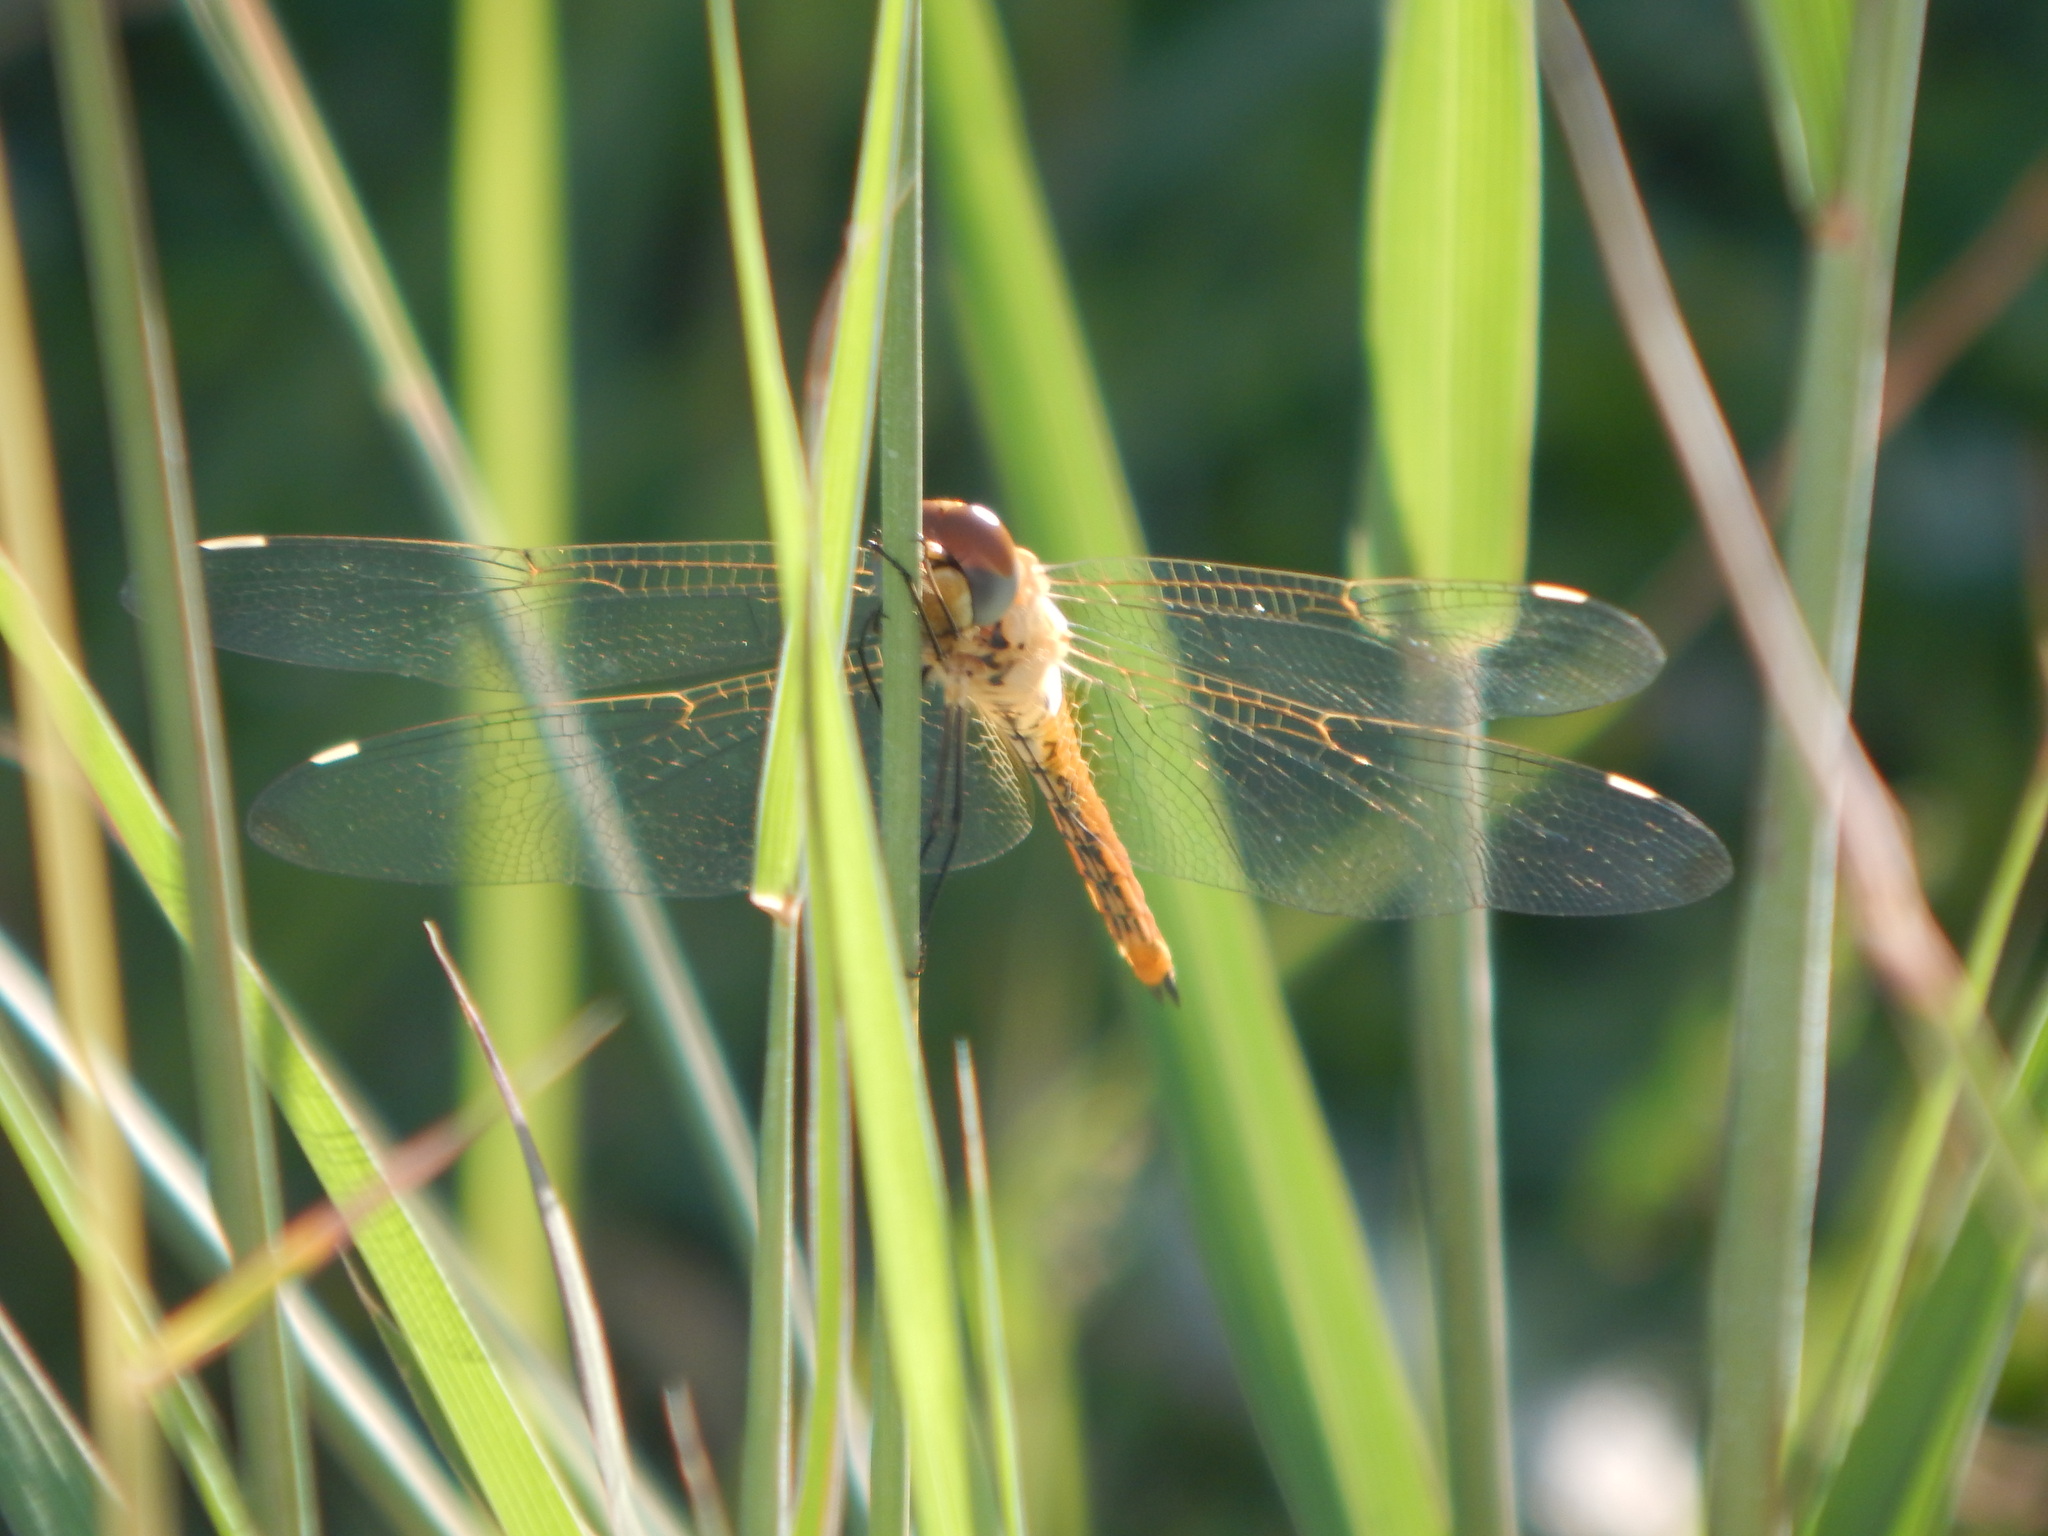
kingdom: Animalia
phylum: Arthropoda
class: Insecta
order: Odonata
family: Libellulidae
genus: Pantala
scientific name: Pantala flavescens
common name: Wandering glider
